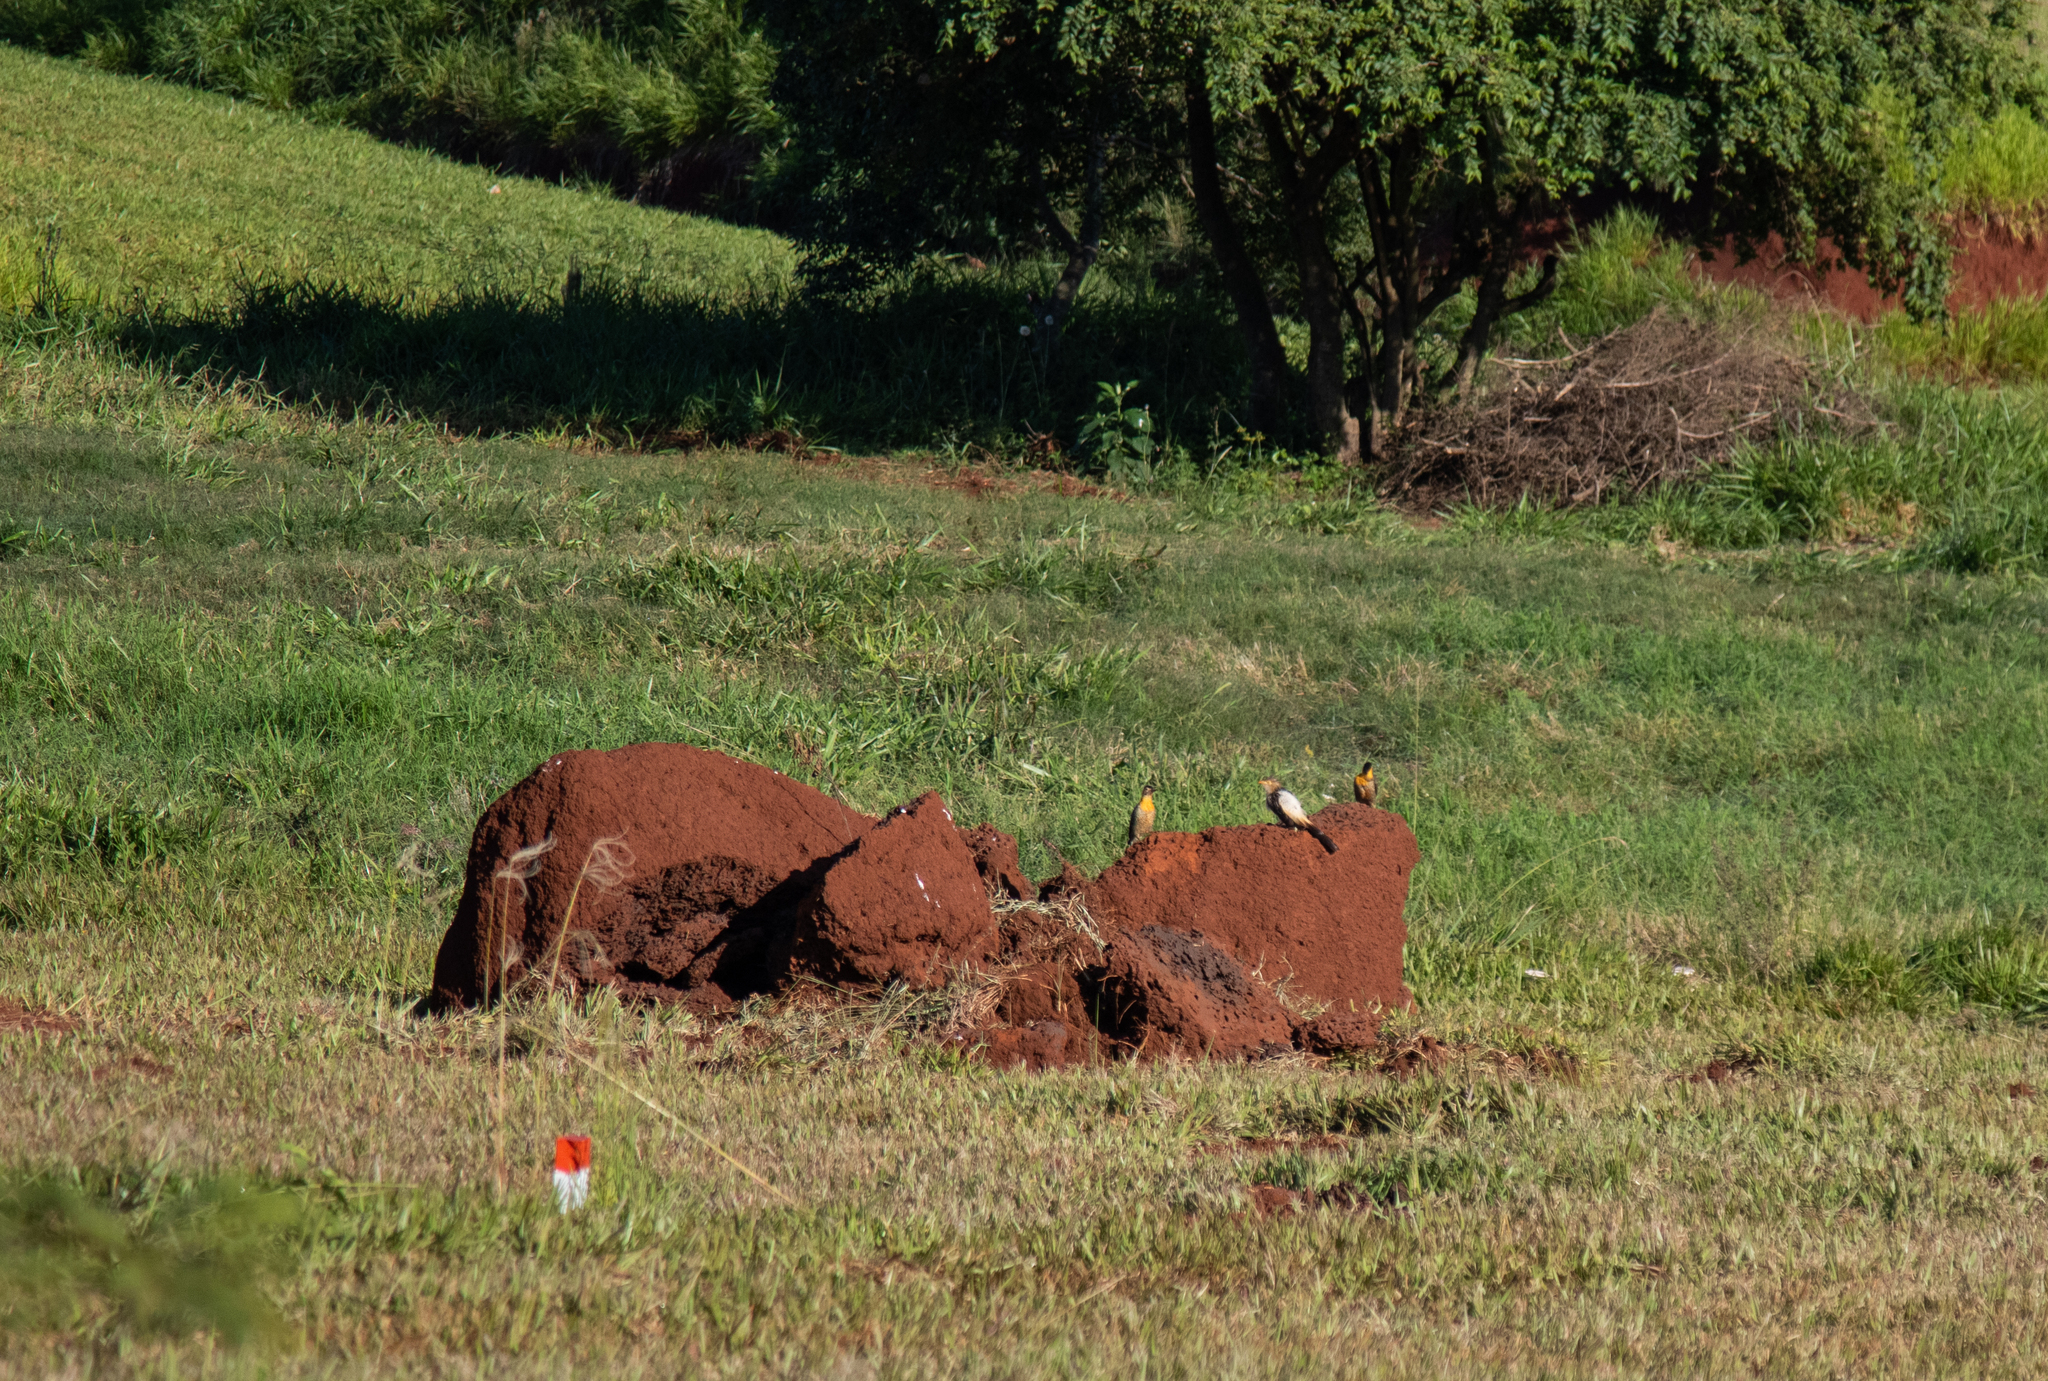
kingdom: Animalia
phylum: Chordata
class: Aves
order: Piciformes
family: Picidae
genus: Colaptes
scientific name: Colaptes campestris
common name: Campo flicker
